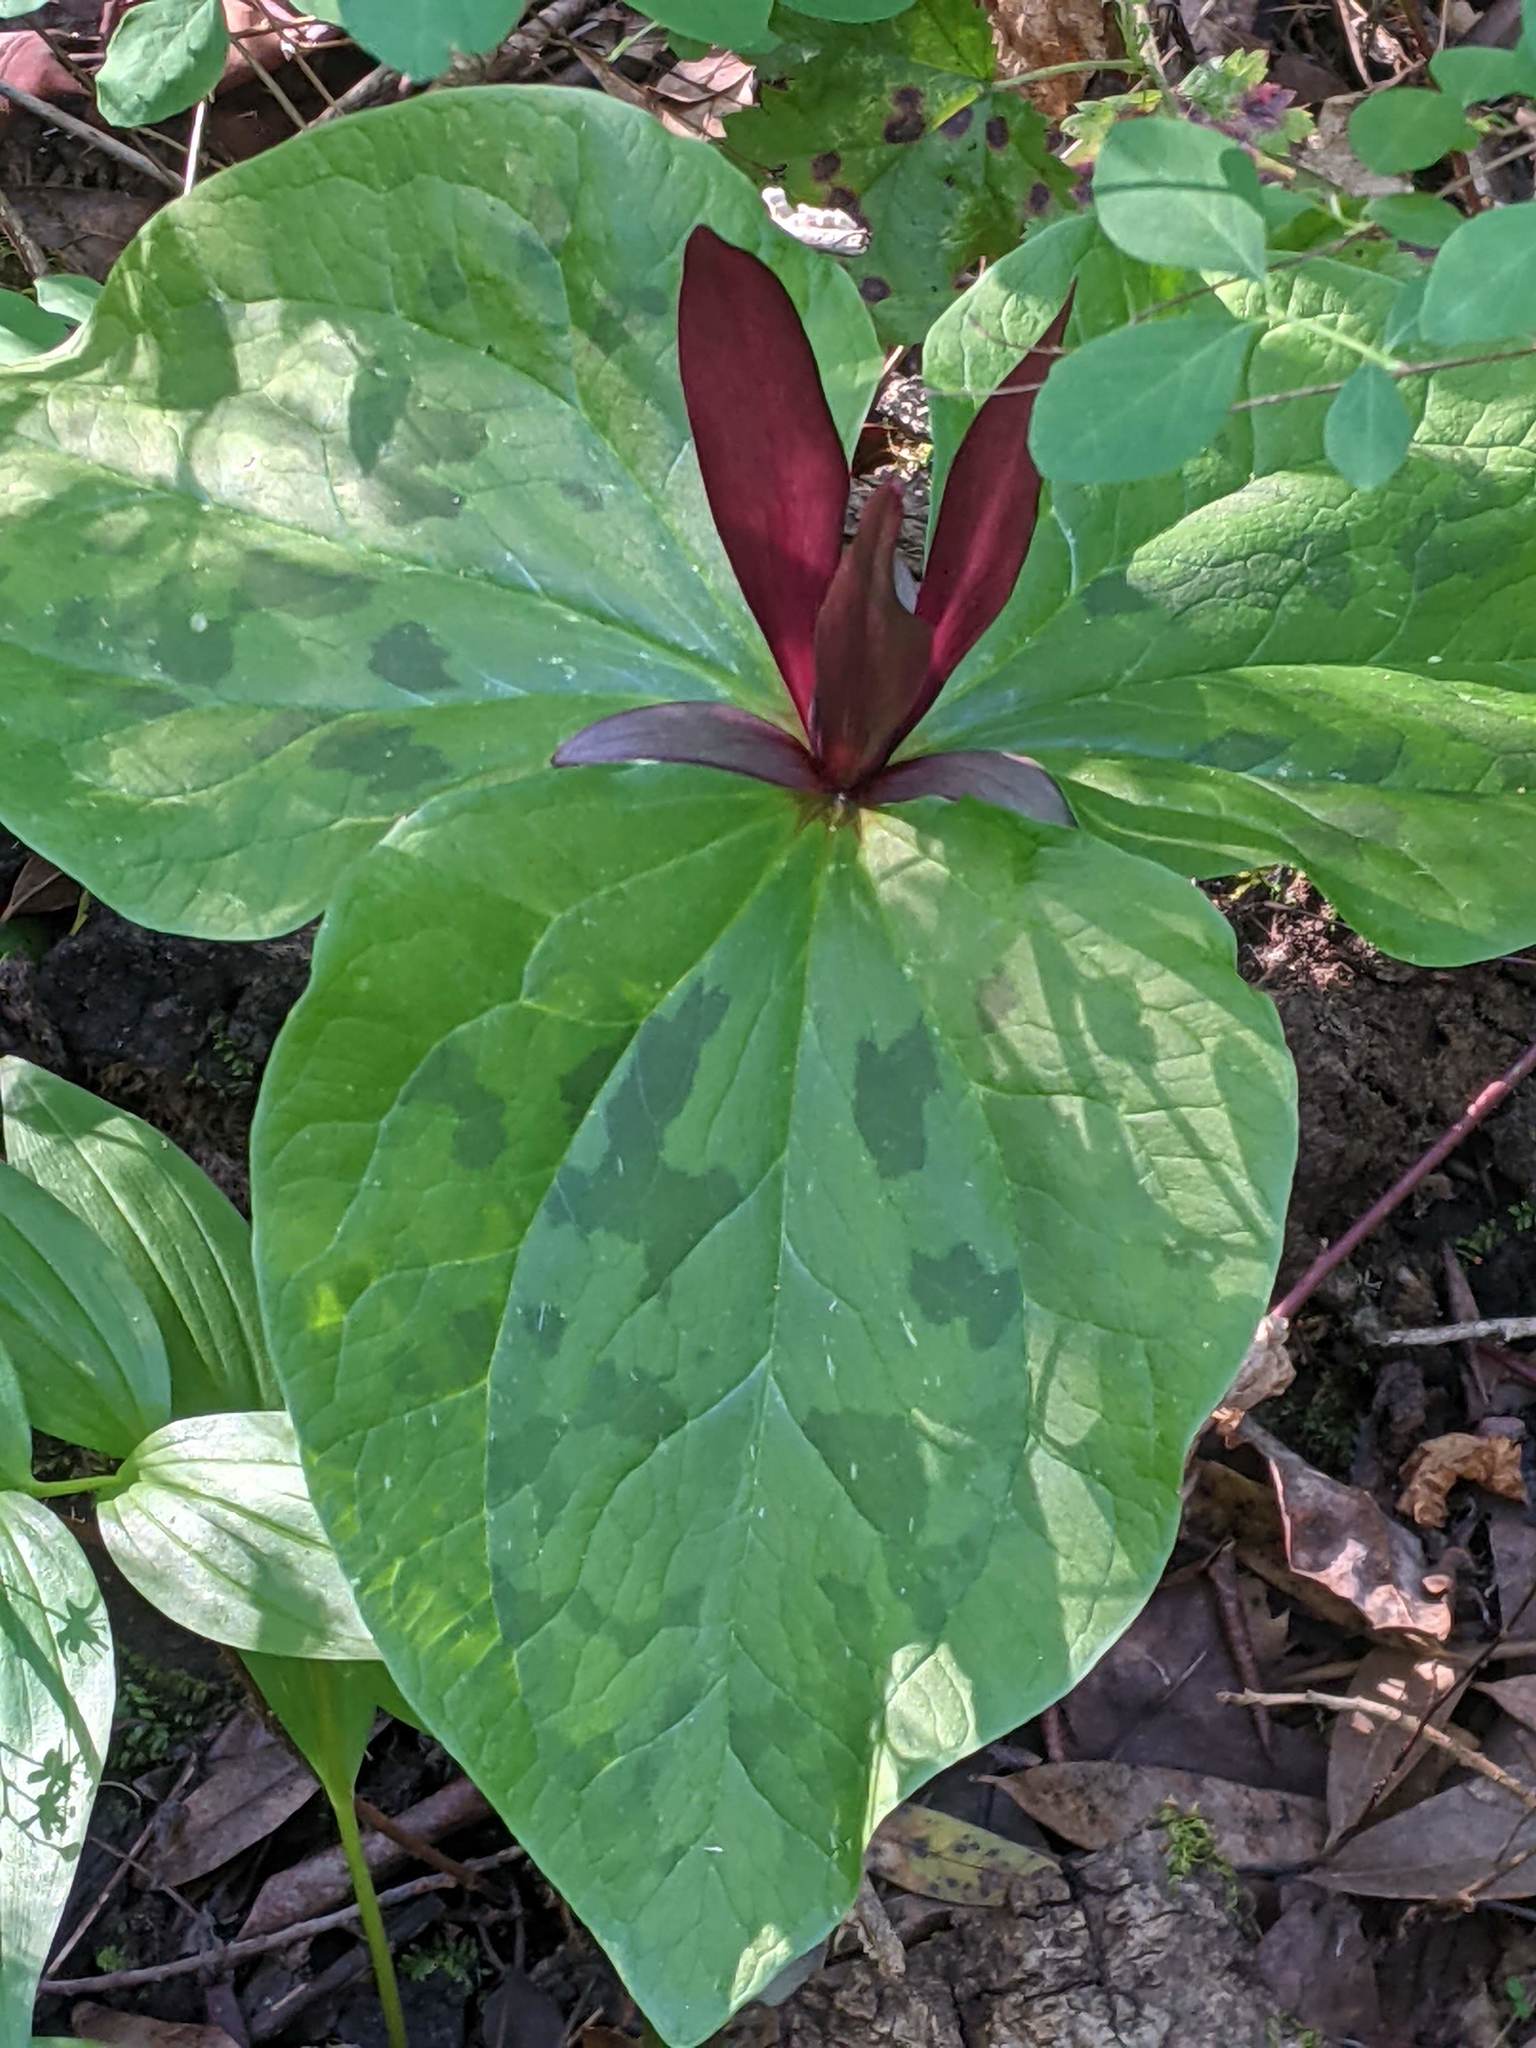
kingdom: Plantae
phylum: Tracheophyta
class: Liliopsida
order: Liliales
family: Melanthiaceae
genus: Trillium
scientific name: Trillium chloropetalum
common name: Giant trillium
